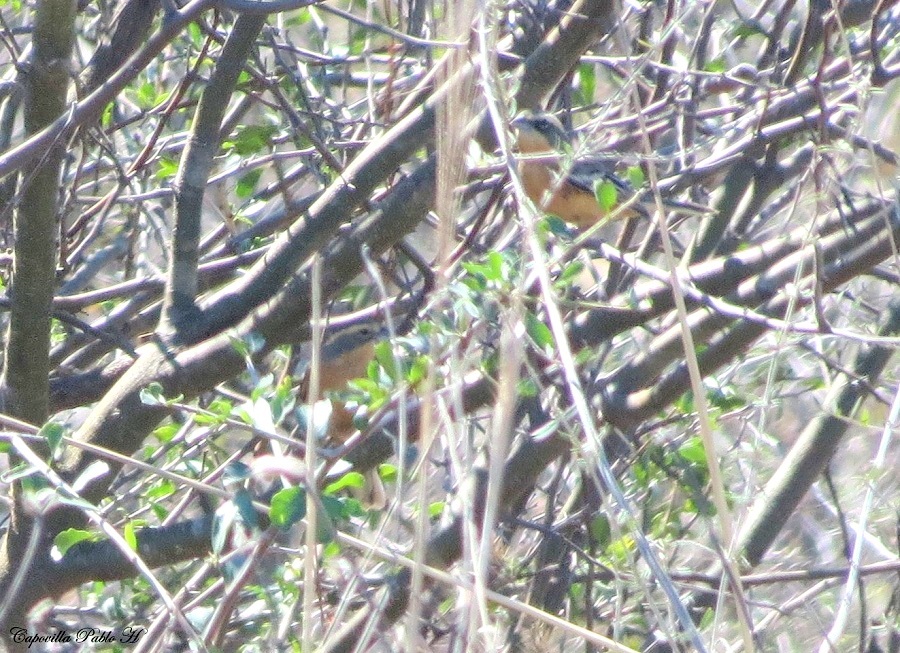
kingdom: Animalia
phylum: Chordata
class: Aves
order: Passeriformes
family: Thraupidae
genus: Poospiza
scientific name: Poospiza ornata
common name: Cinnamon warbling finch
